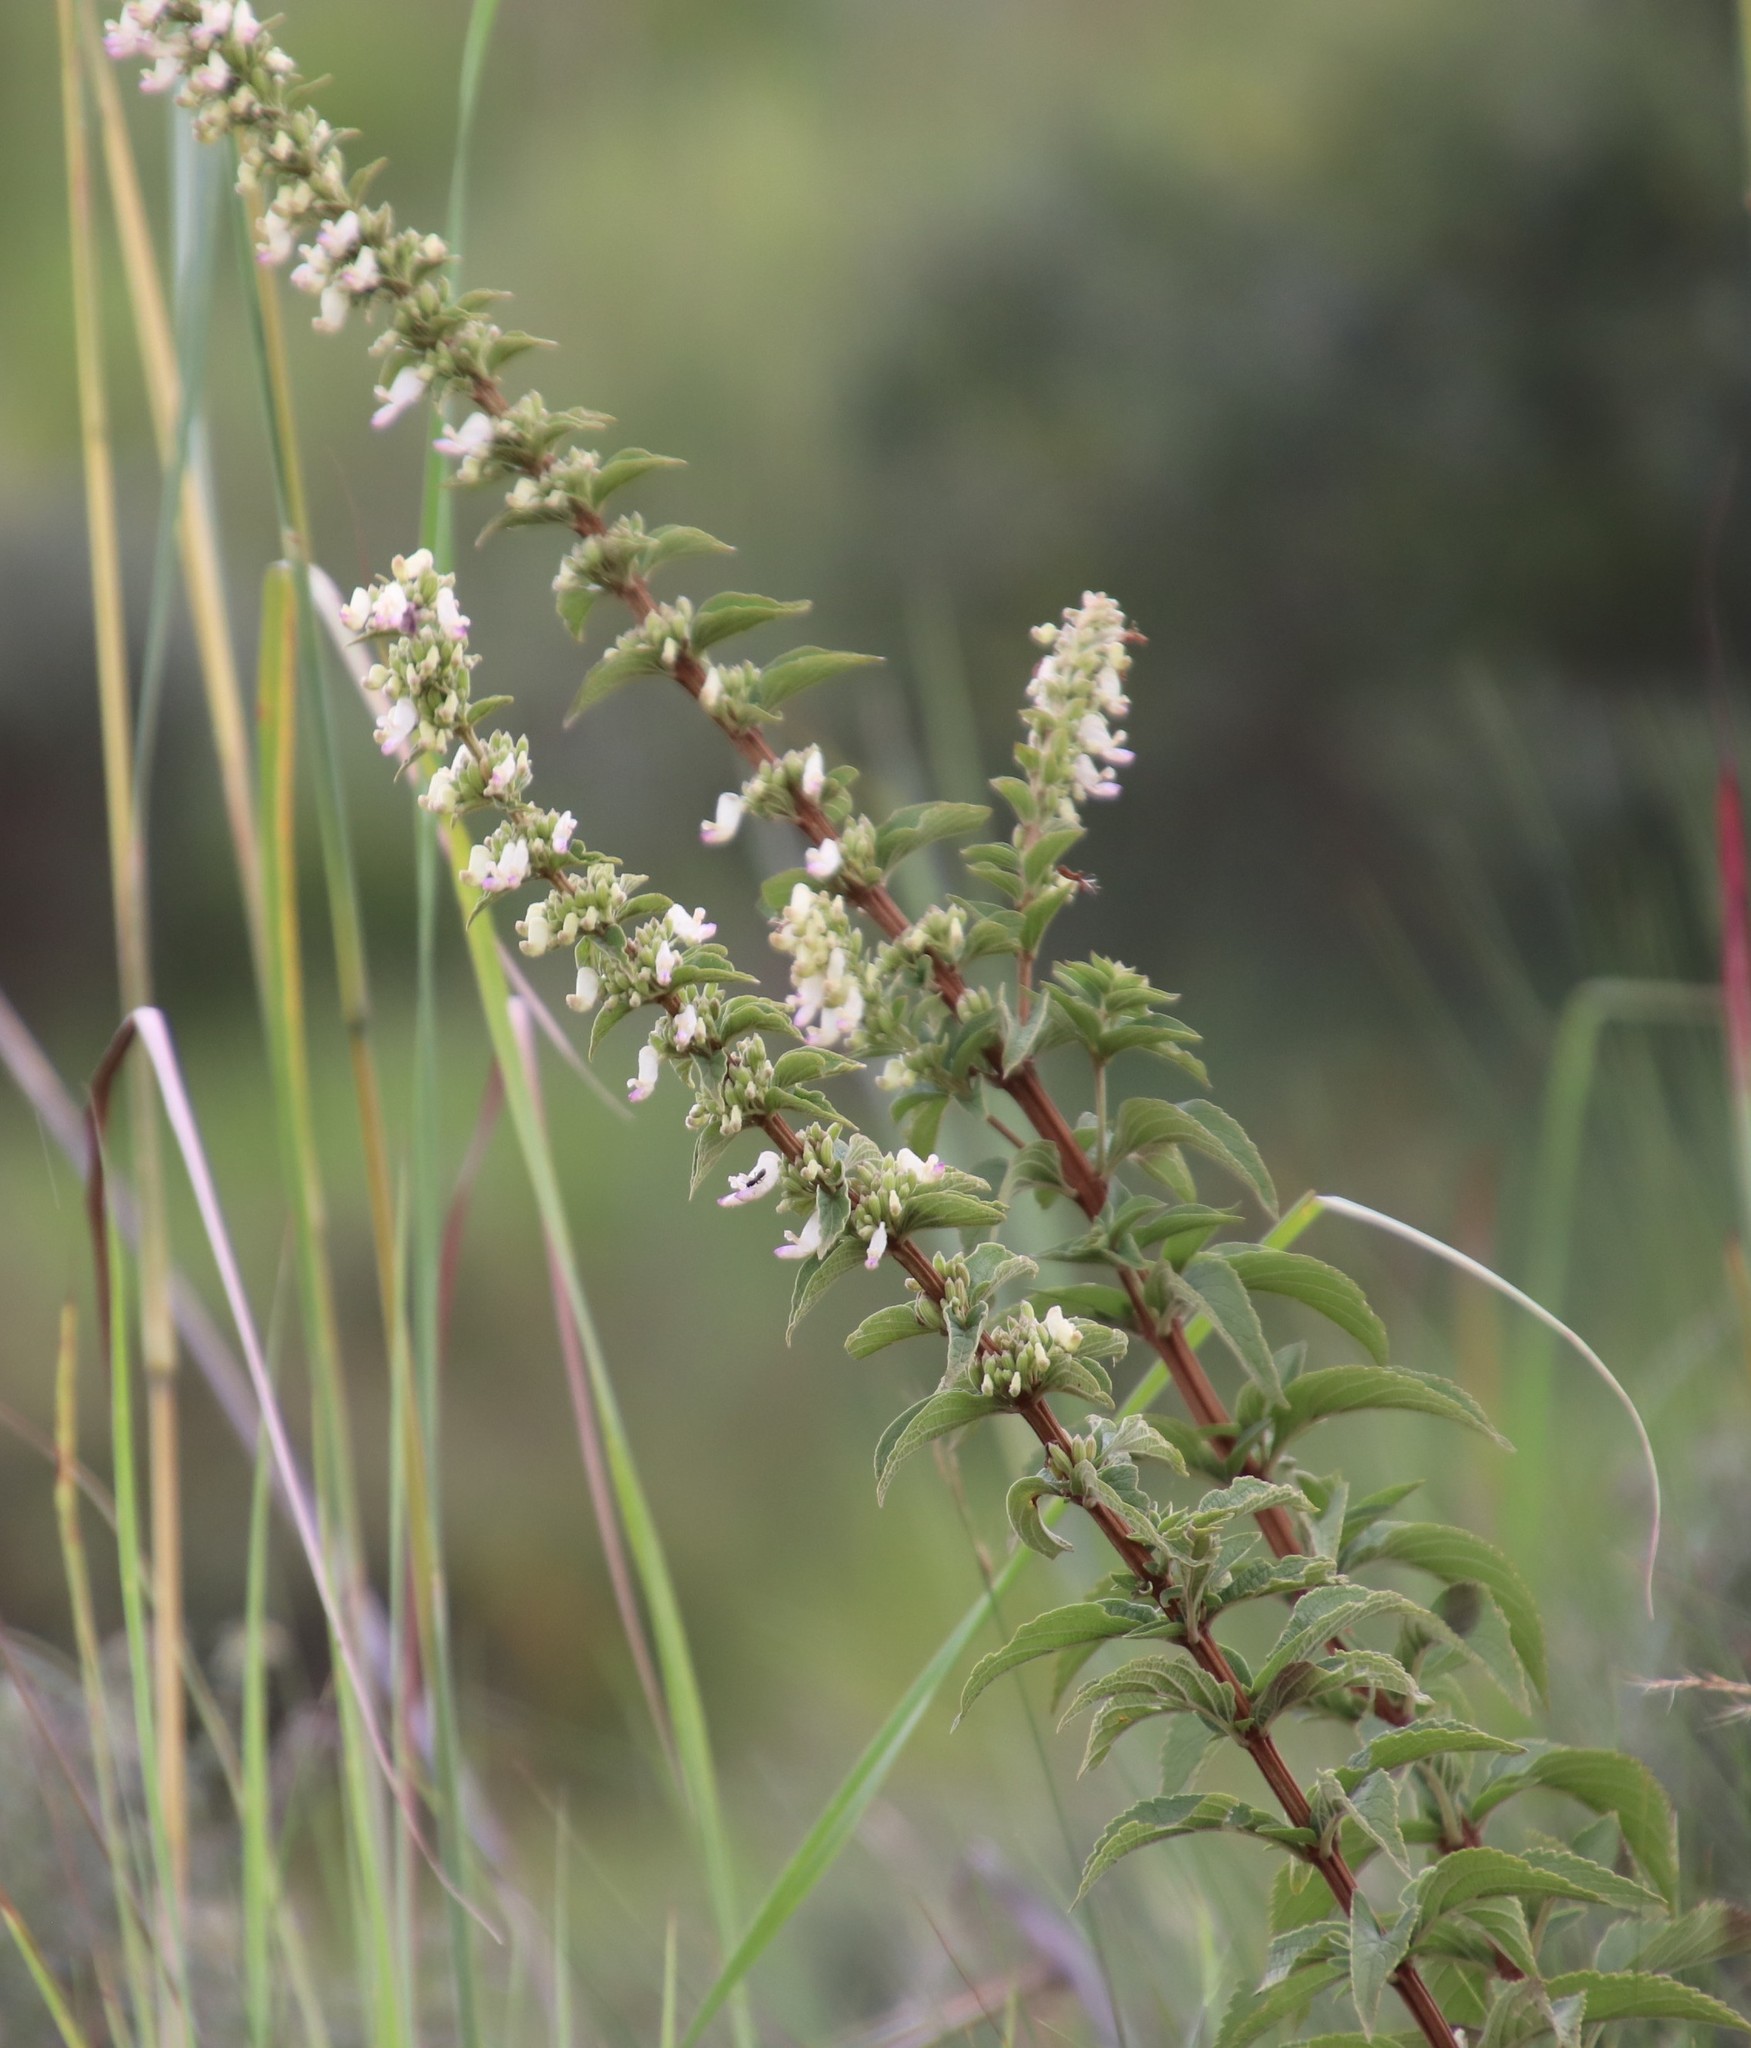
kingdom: Plantae
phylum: Tracheophyta
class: Magnoliopsida
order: Lamiales
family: Lamiaceae
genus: Coleus
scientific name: Coleus calycinus
